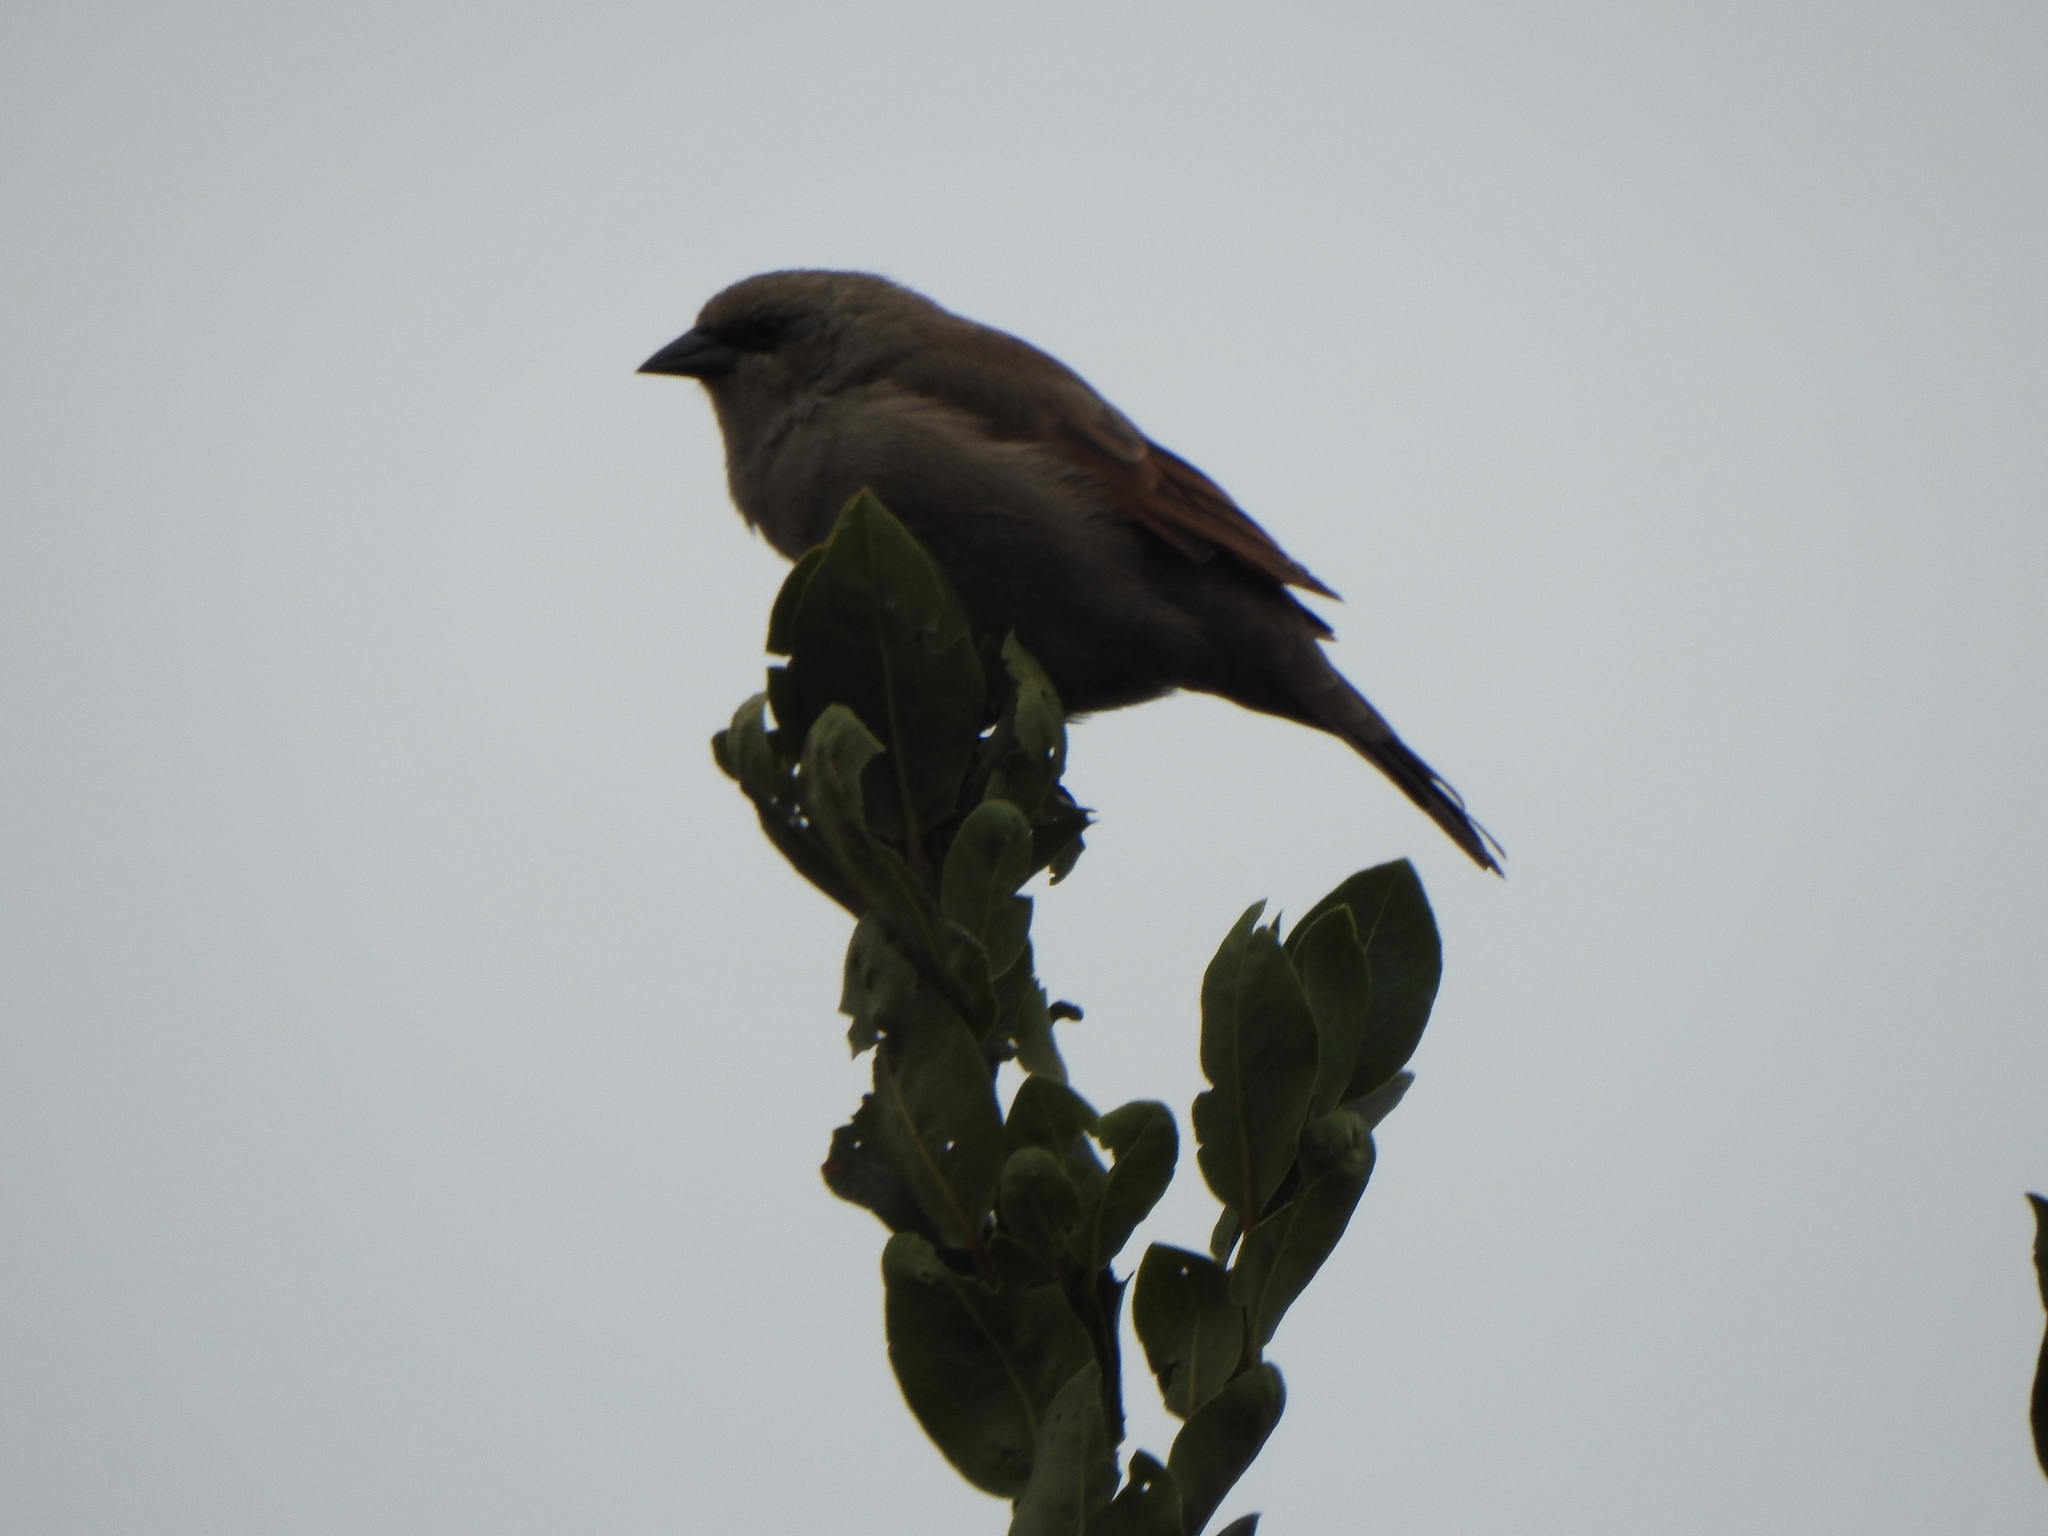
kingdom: Animalia
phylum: Chordata
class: Aves
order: Passeriformes
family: Icteridae
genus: Agelaioides
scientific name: Agelaioides badius
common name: Baywing
